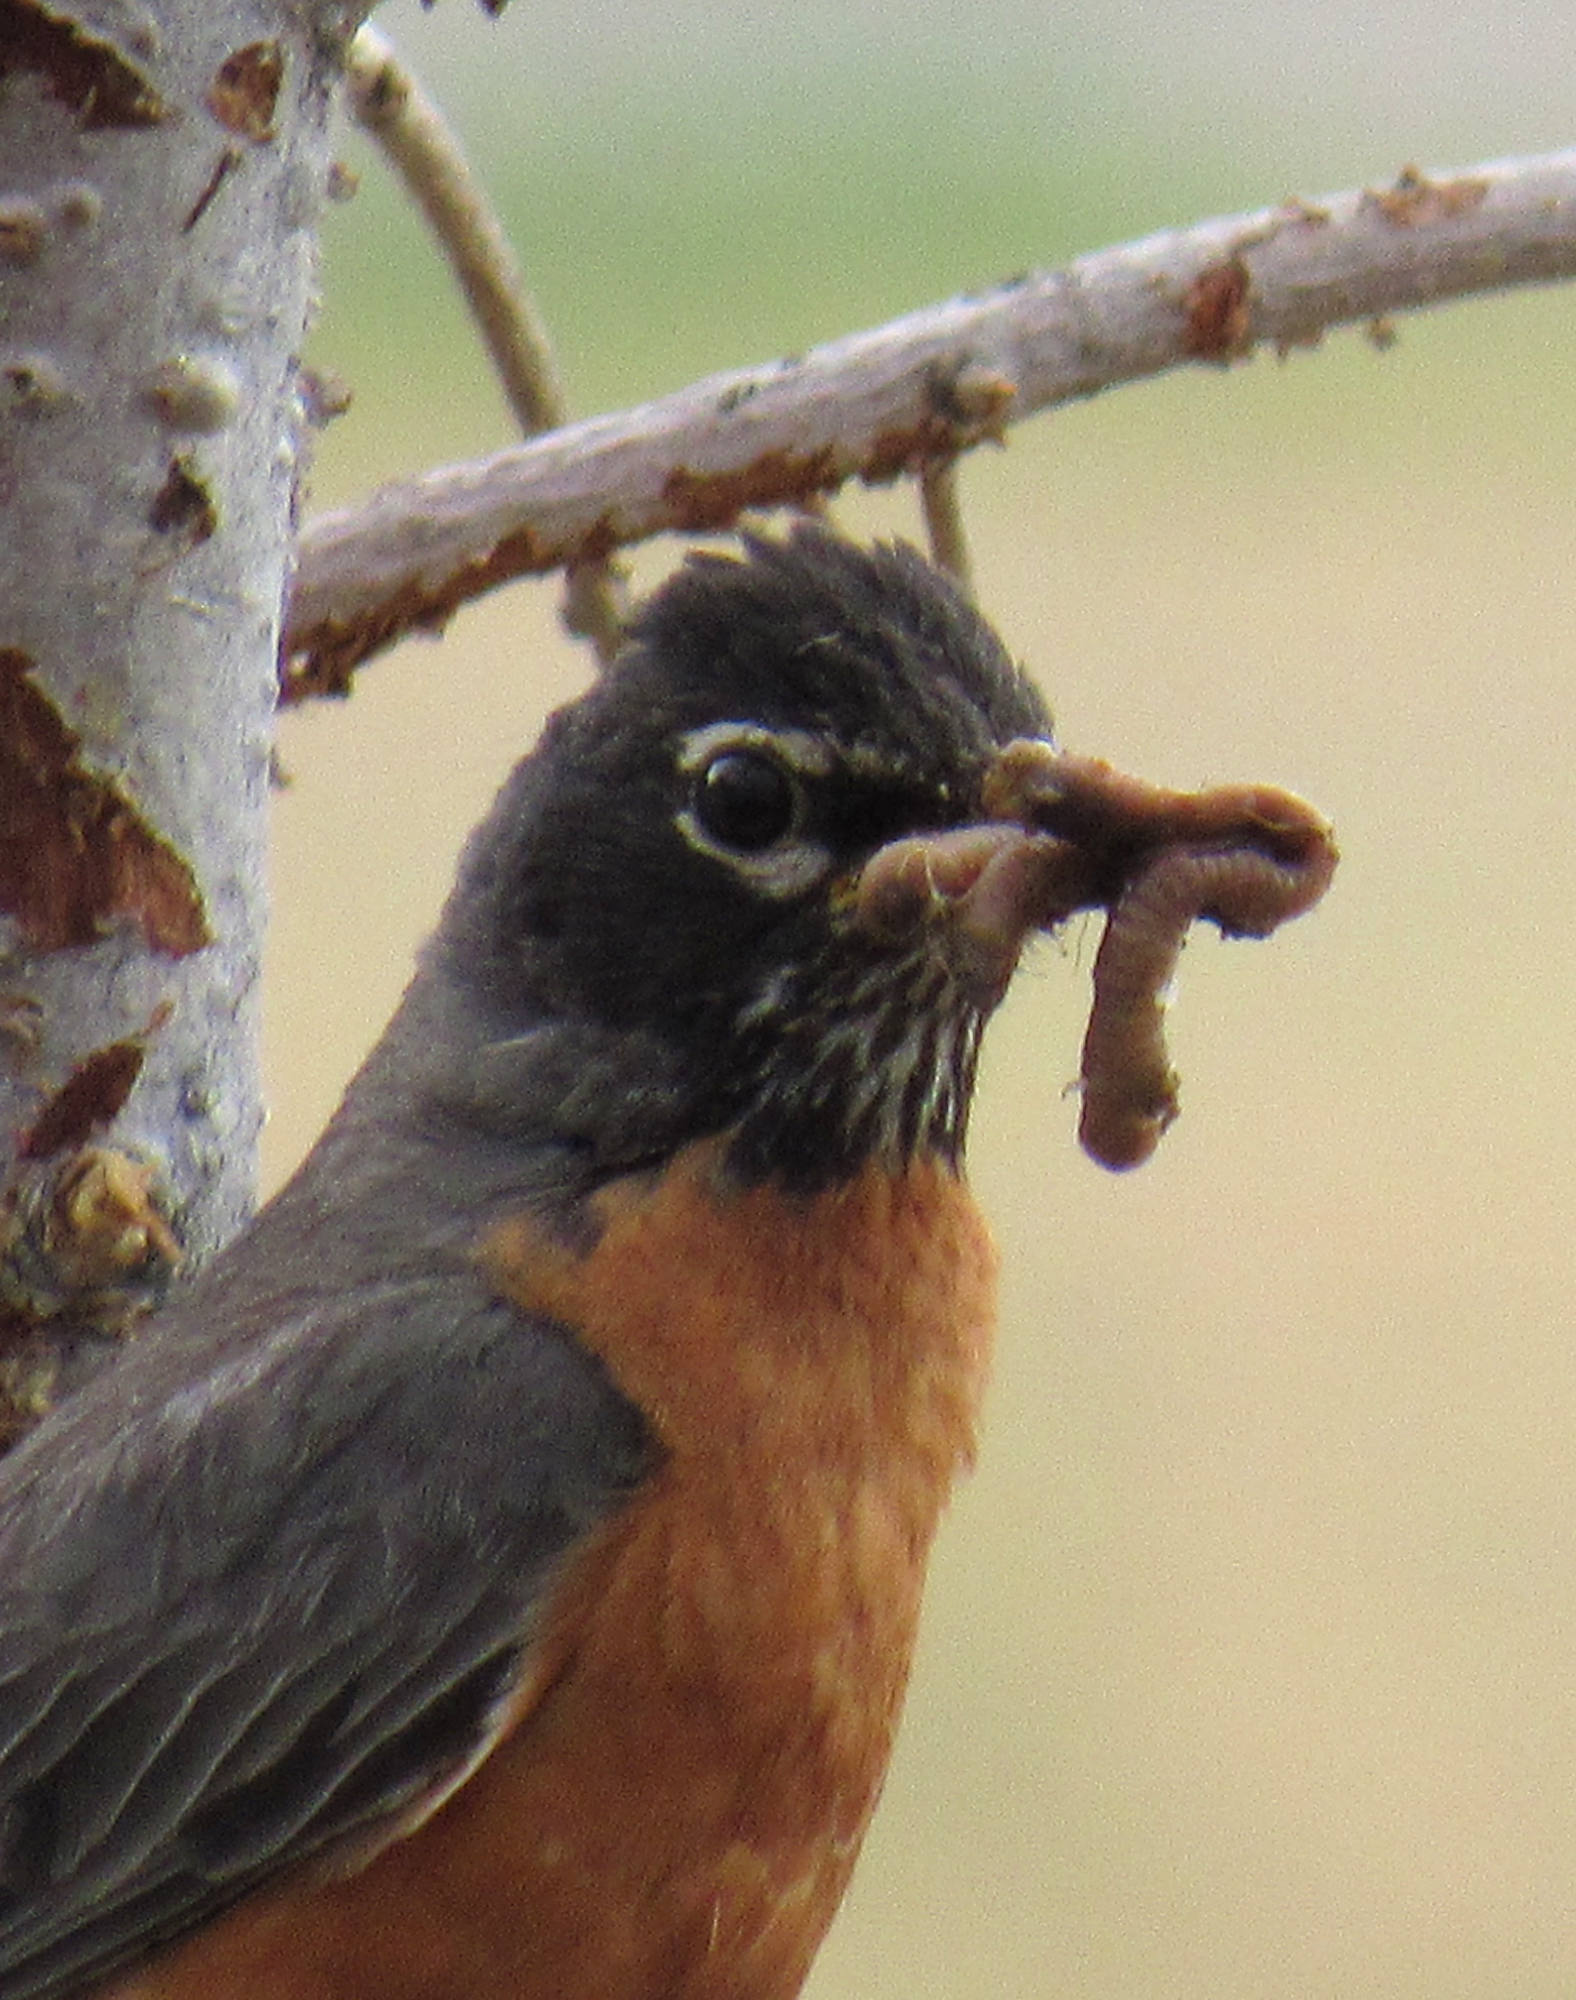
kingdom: Animalia
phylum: Chordata
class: Aves
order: Passeriformes
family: Turdidae
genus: Turdus
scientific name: Turdus migratorius
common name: American robin
